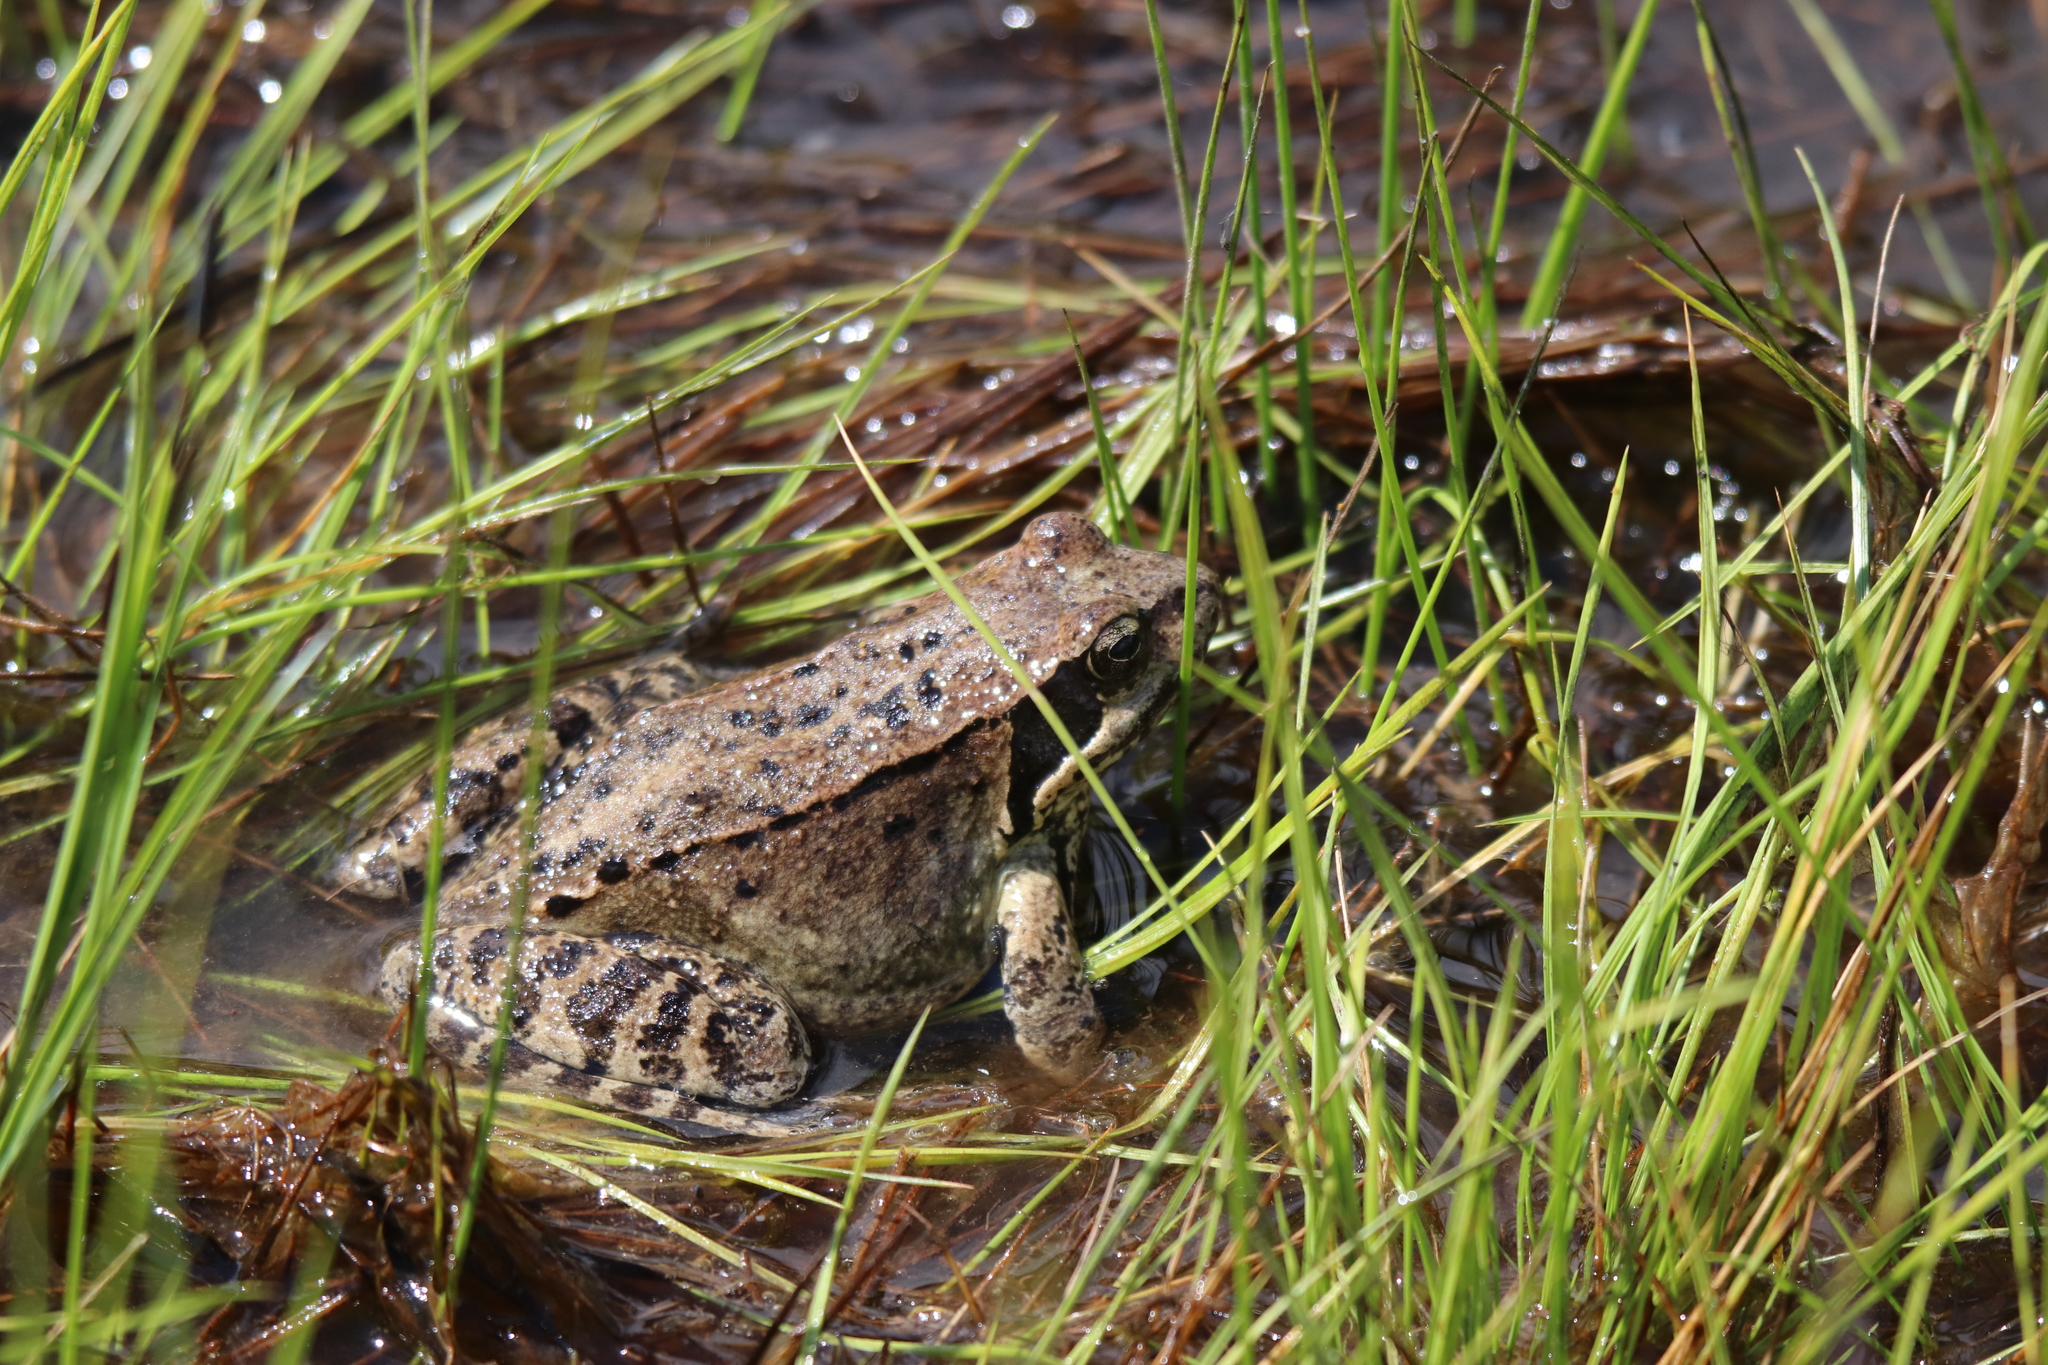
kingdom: Animalia
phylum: Chordata
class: Amphibia
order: Anura
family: Ranidae
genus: Rana
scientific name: Rana temporaria
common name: Common frog
